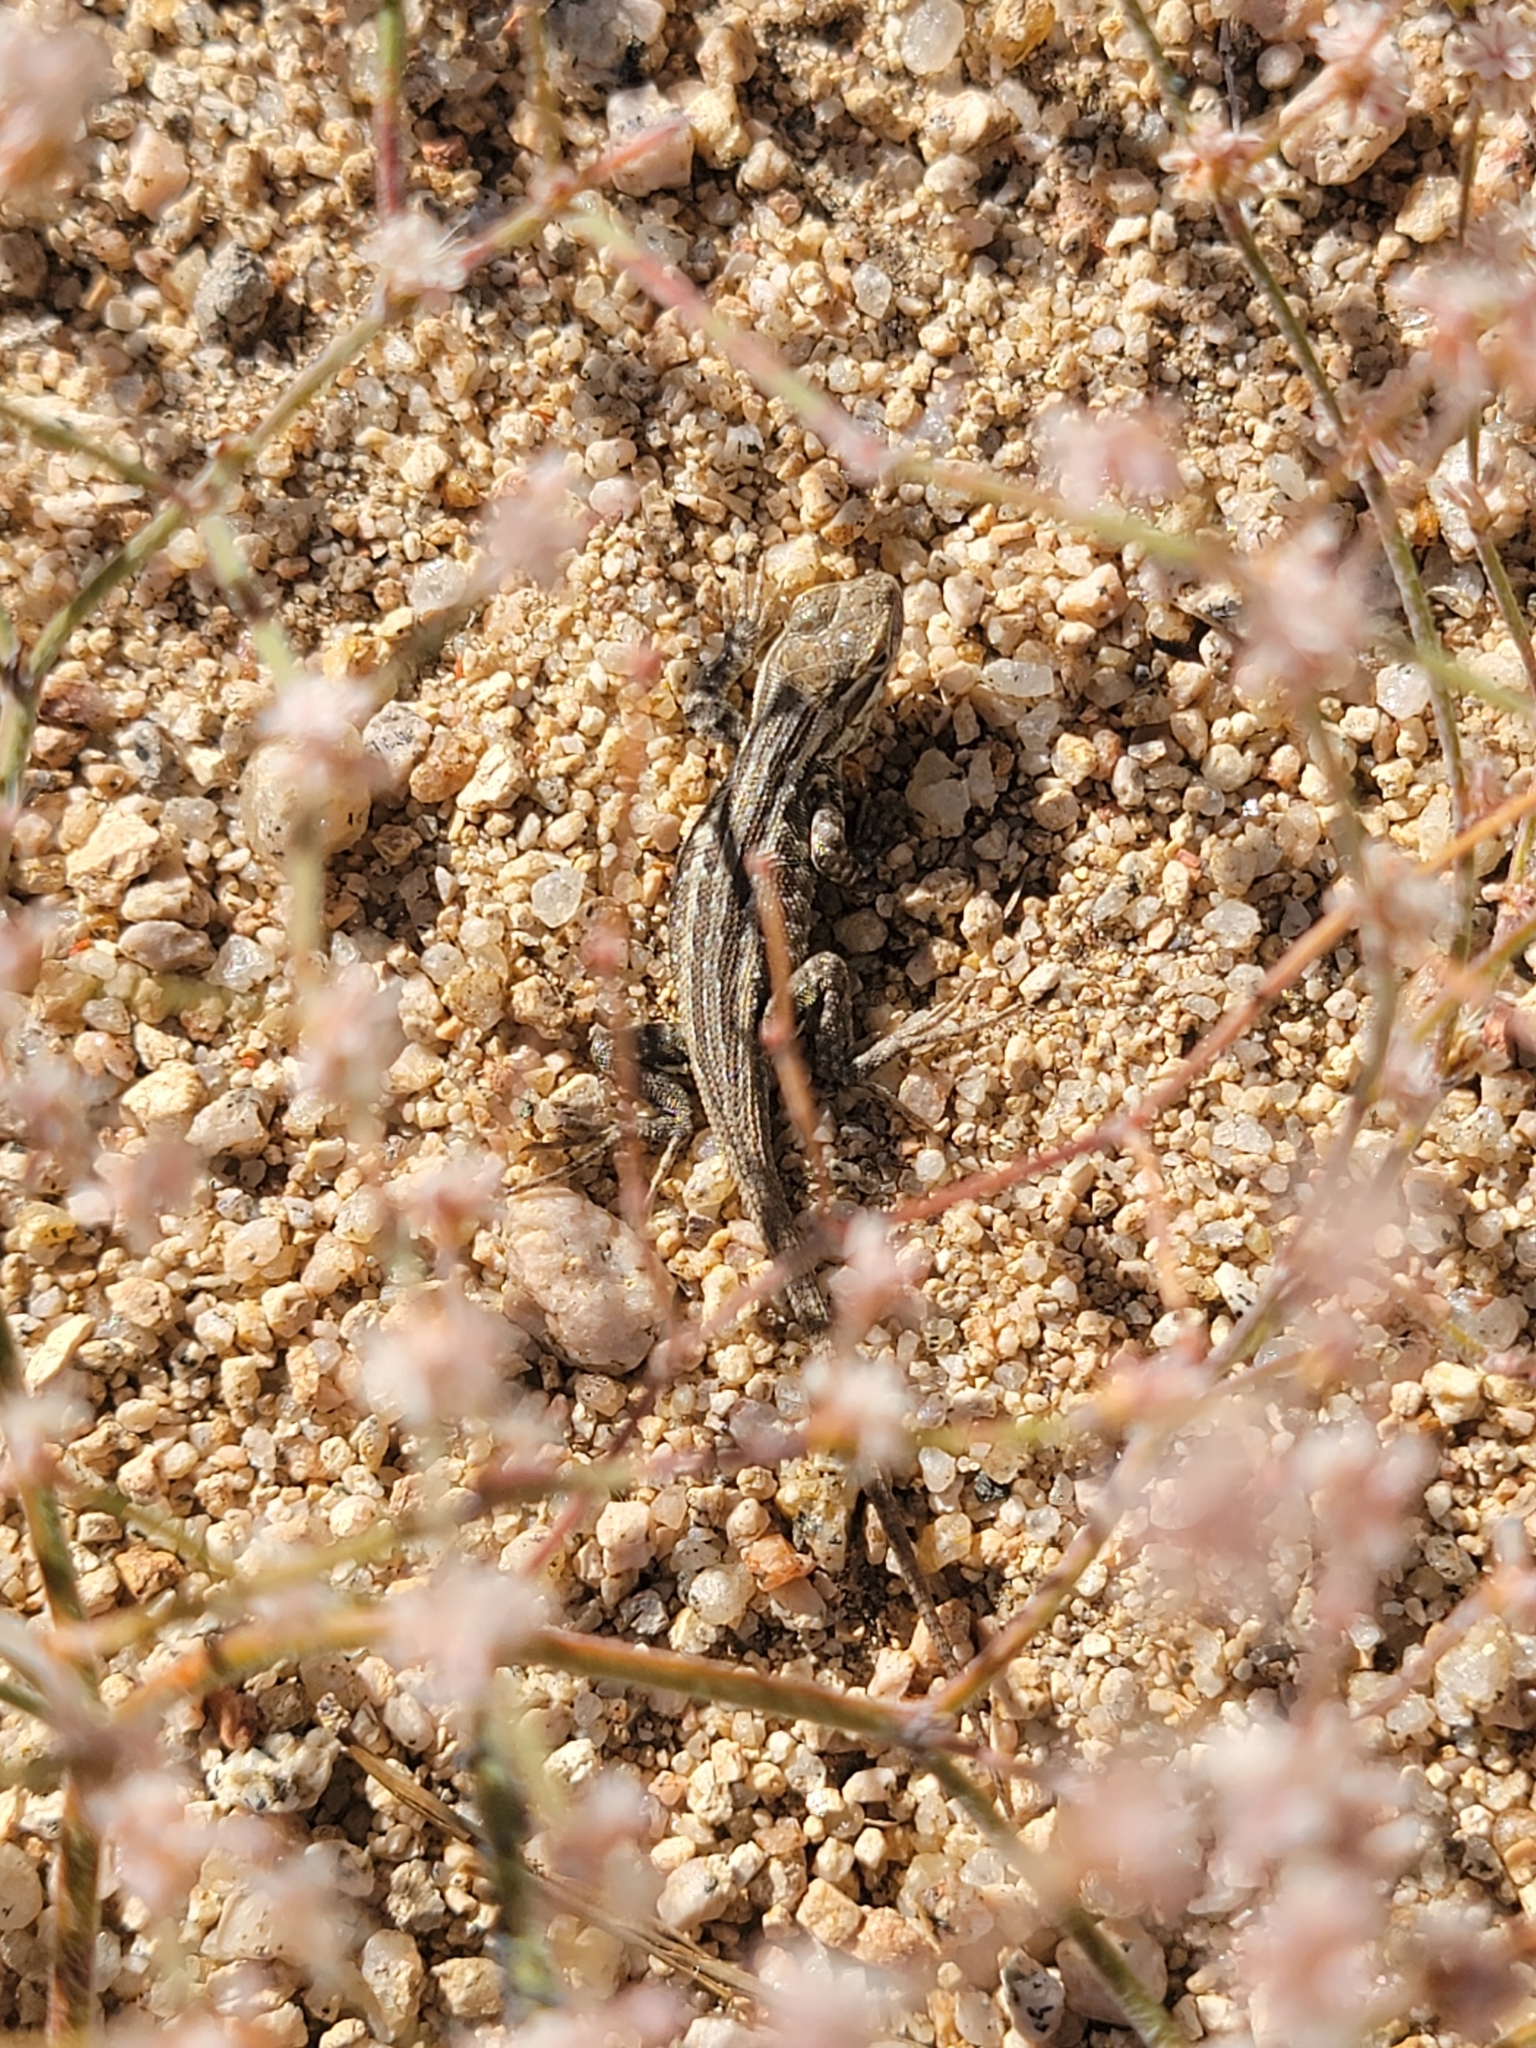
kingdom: Animalia
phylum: Chordata
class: Squamata
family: Phrynosomatidae
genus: Uta
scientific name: Uta stansburiana
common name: Side-blotched lizard
